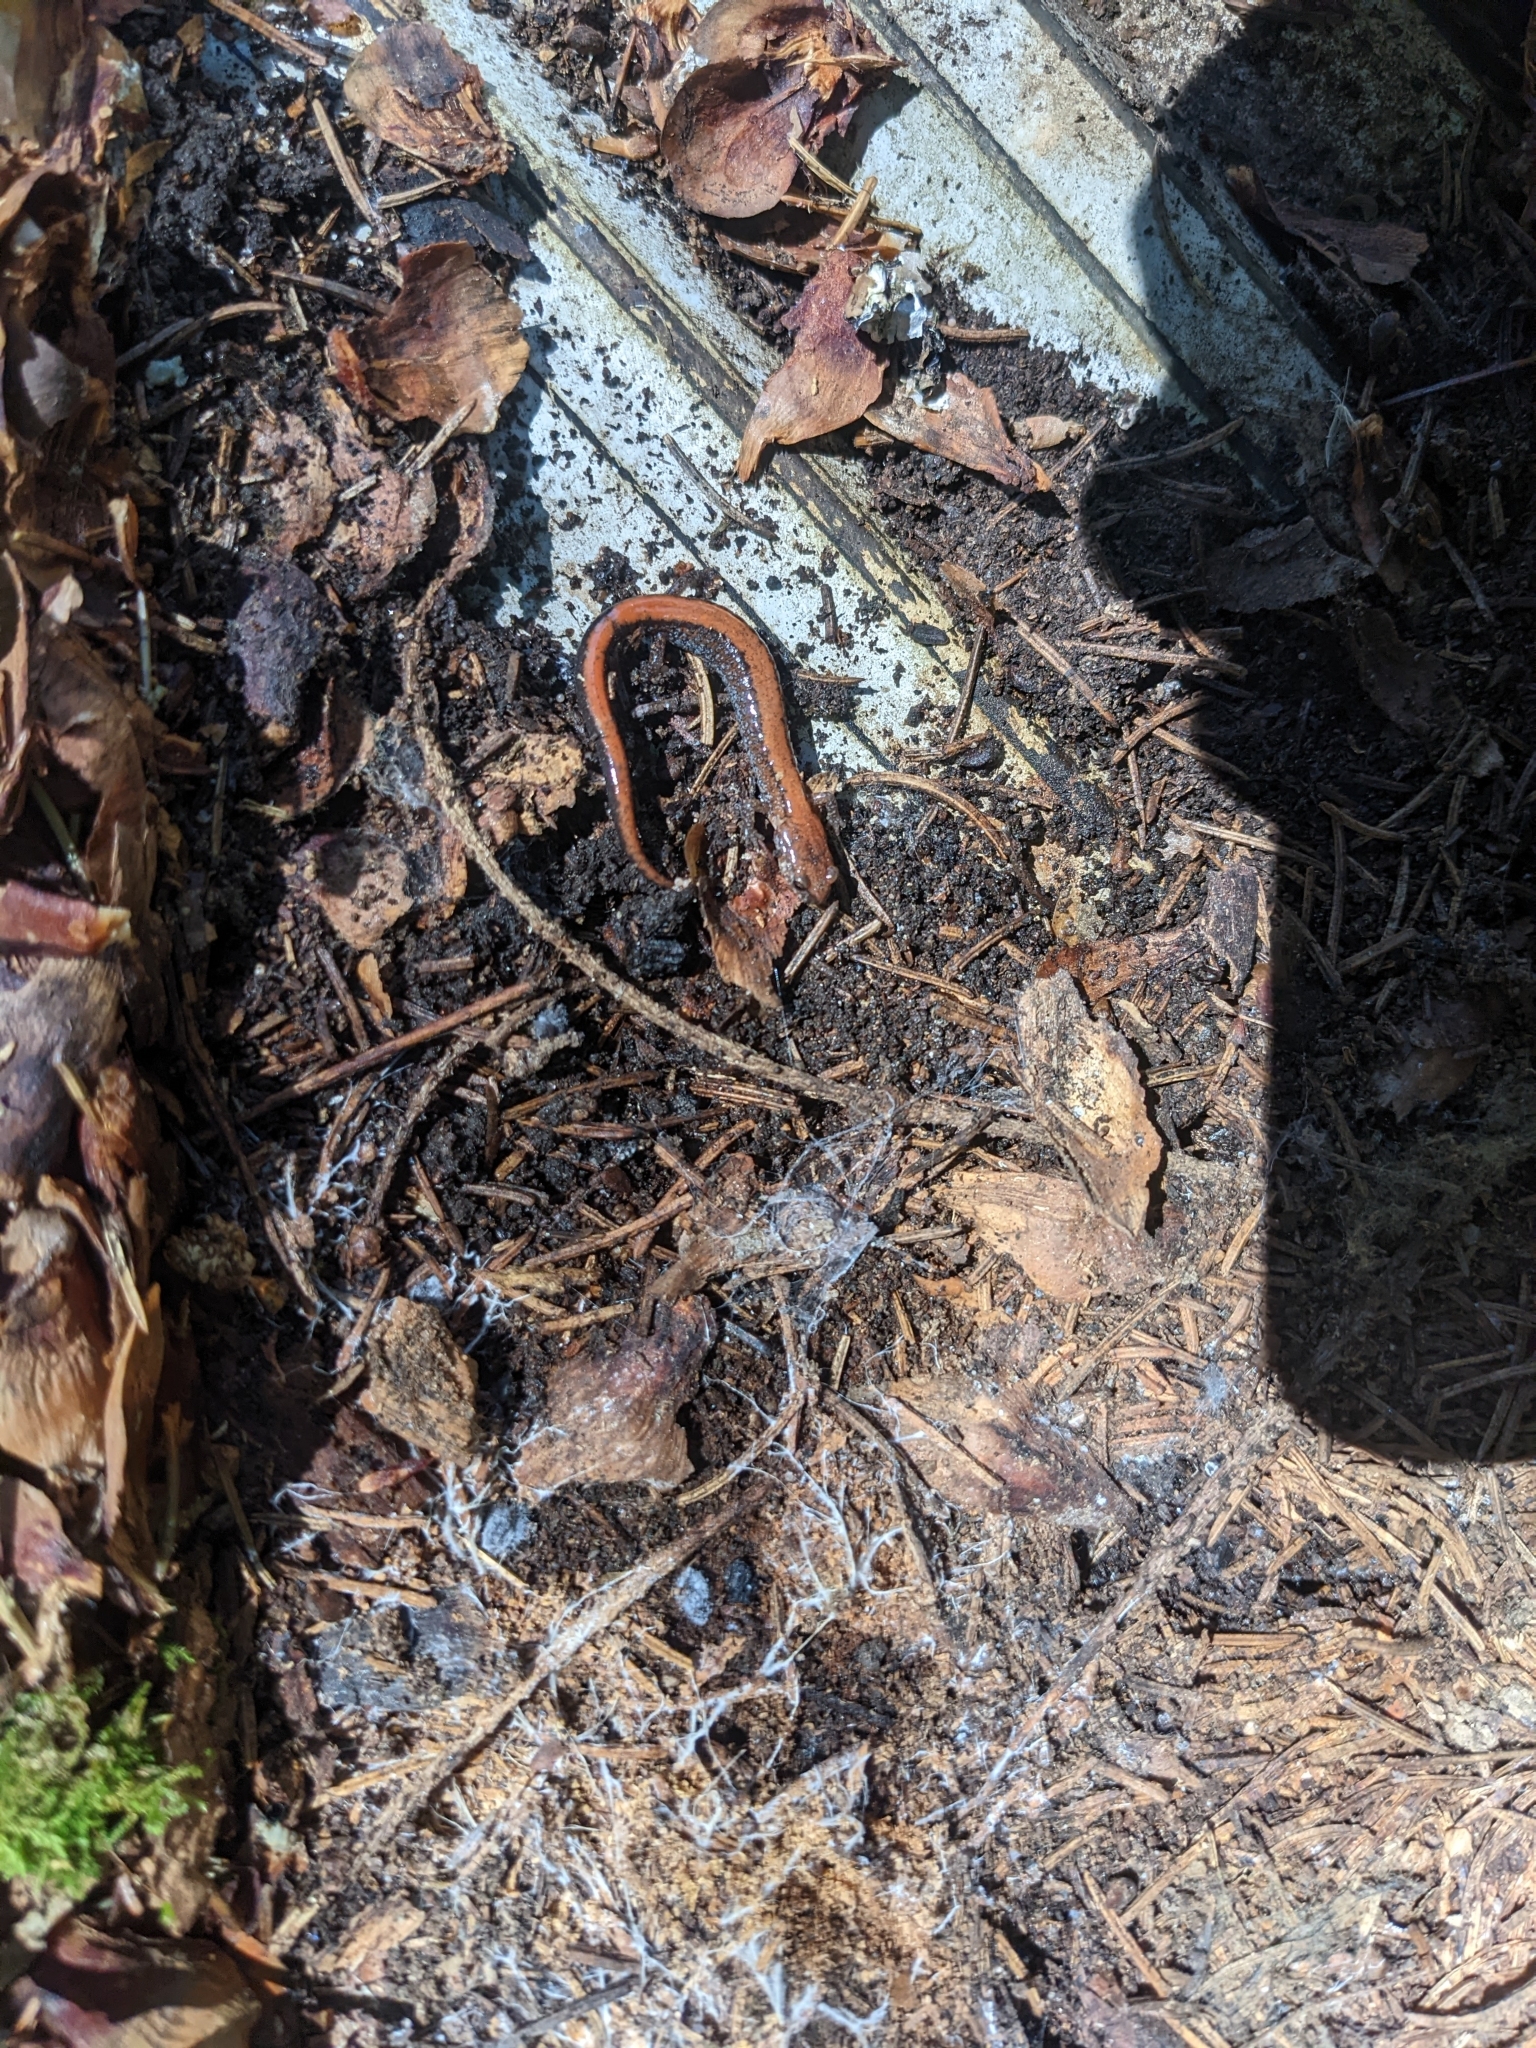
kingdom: Animalia
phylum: Chordata
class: Amphibia
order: Caudata
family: Plethodontidae
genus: Plethodon
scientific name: Plethodon cinereus
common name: Redback salamander
